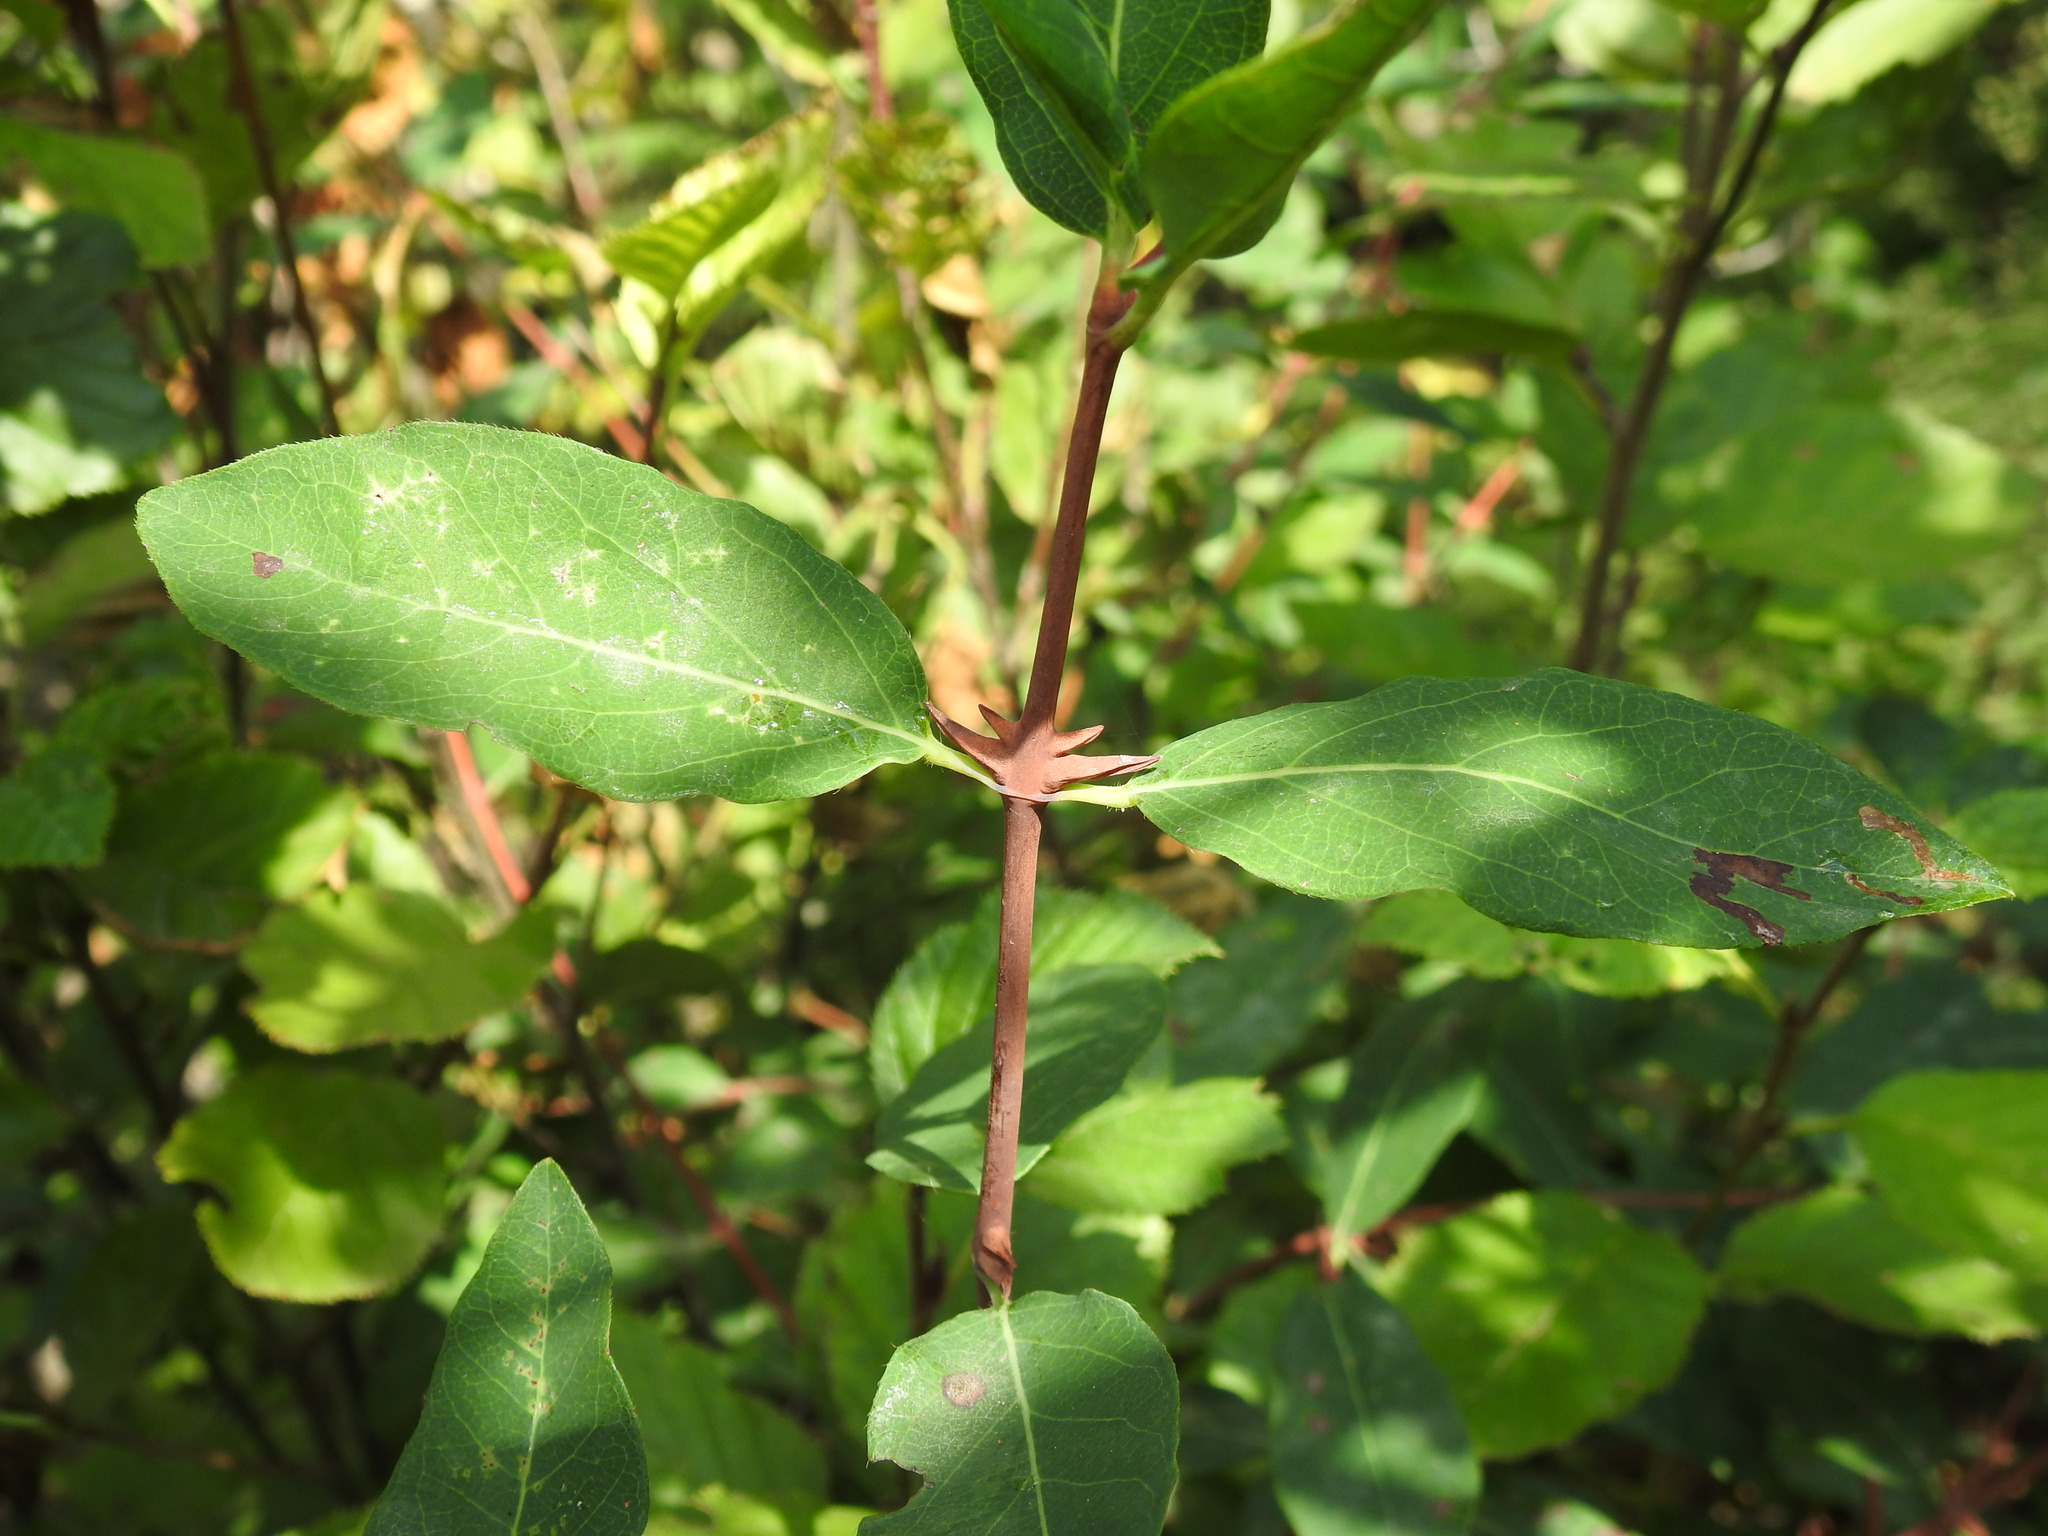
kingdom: Plantae
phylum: Tracheophyta
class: Magnoliopsida
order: Dipsacales
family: Caprifoliaceae
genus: Lonicera
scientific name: Lonicera caerulea
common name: Blue honeysuckle
